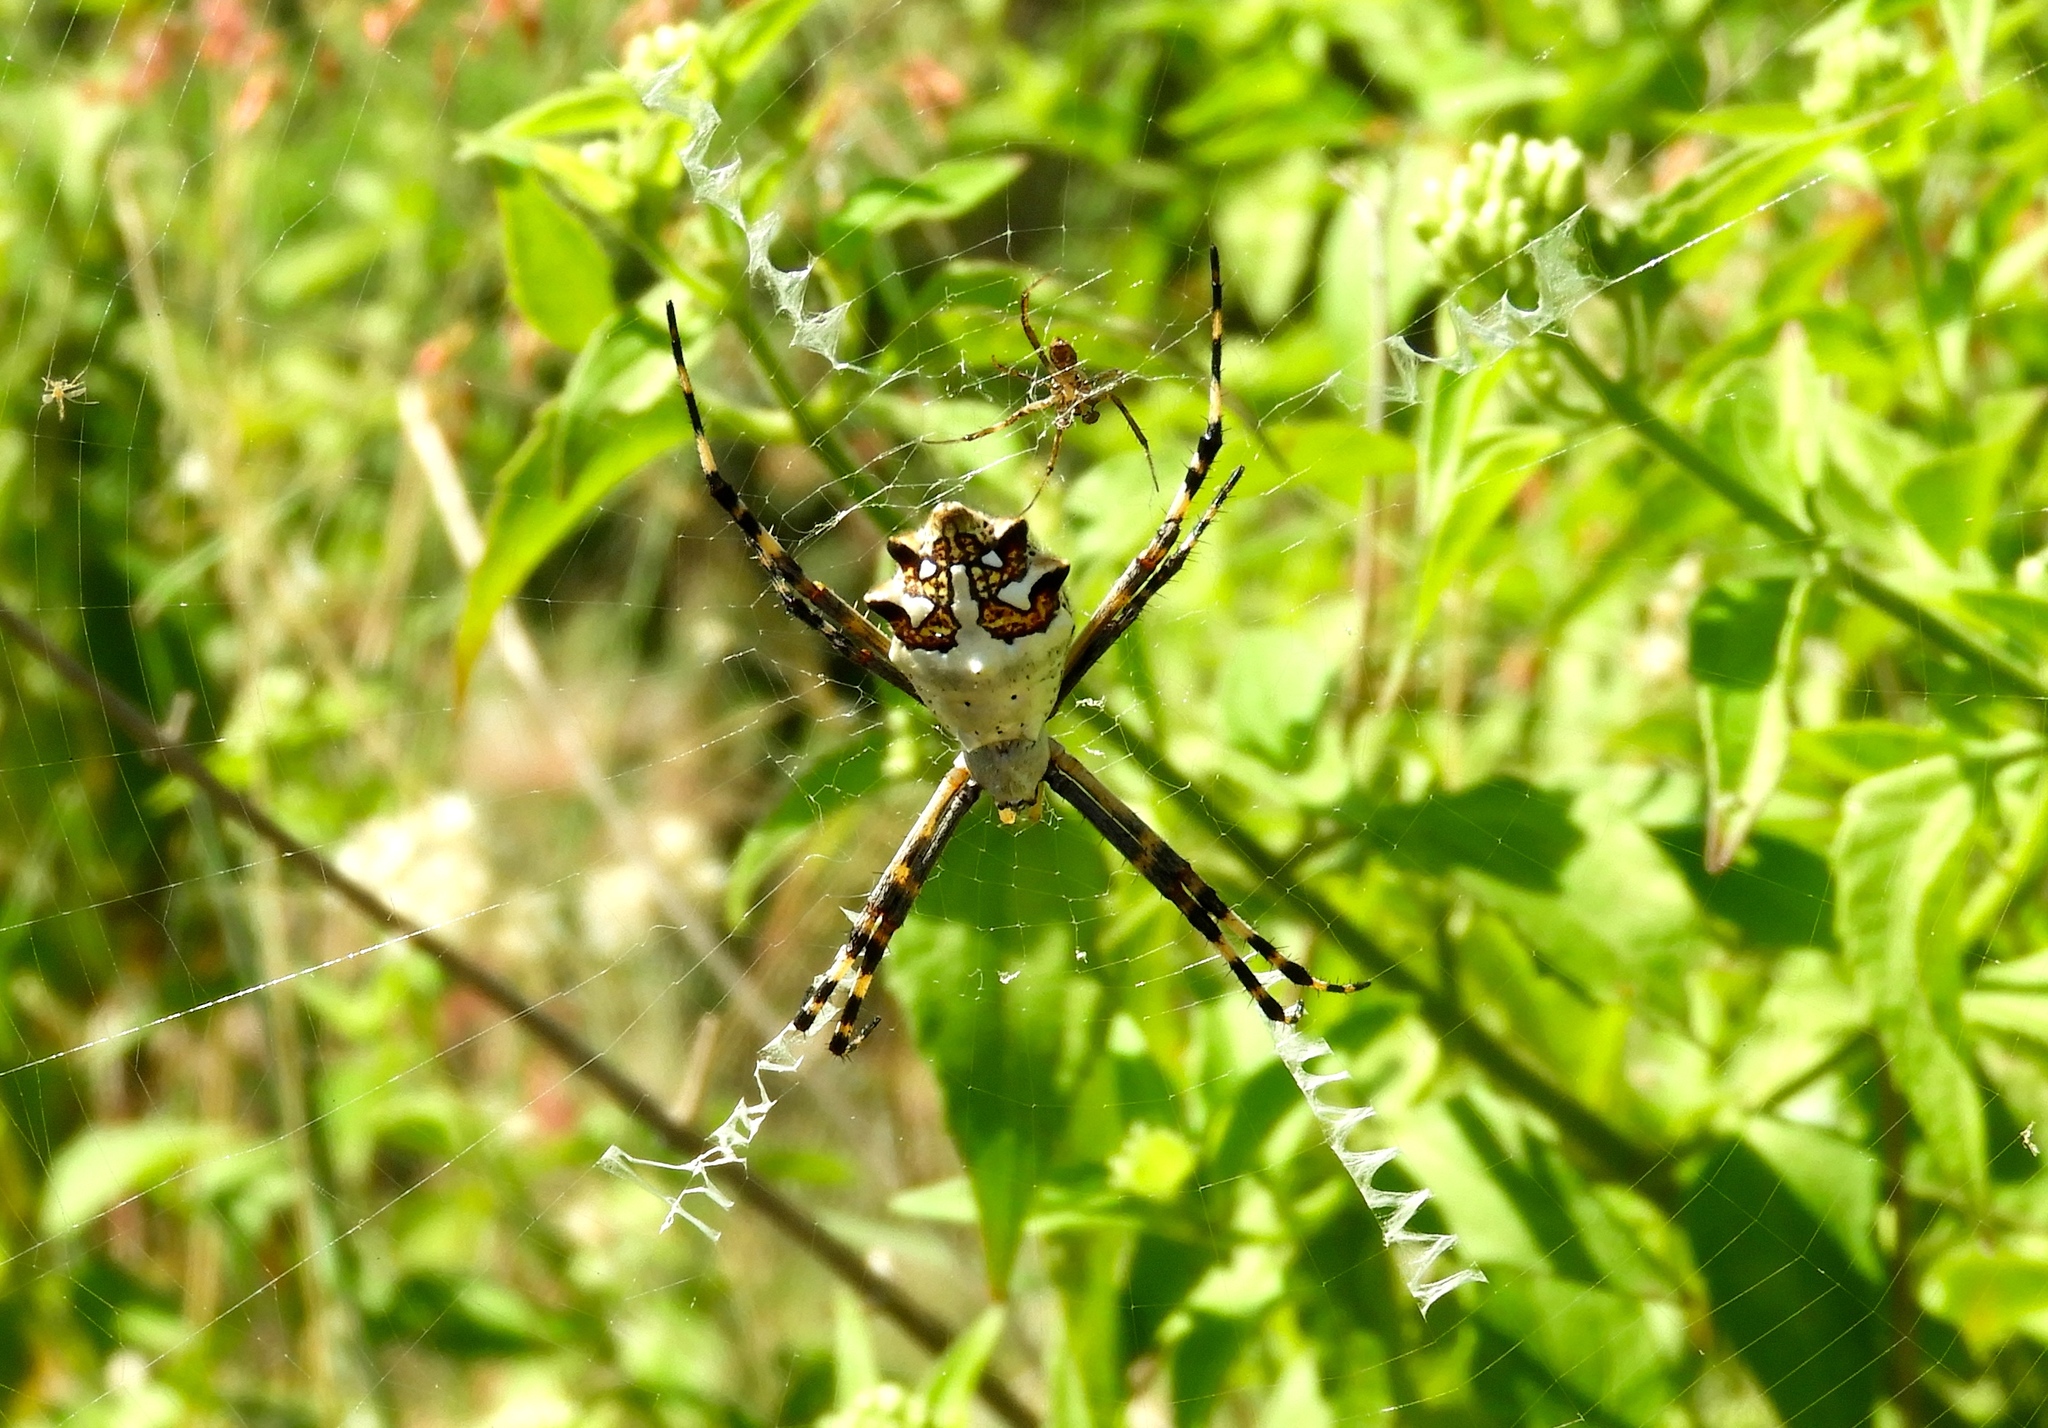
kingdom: Animalia
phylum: Arthropoda
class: Arachnida
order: Araneae
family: Araneidae
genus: Argiope
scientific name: Argiope argentata
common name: Orb weavers
